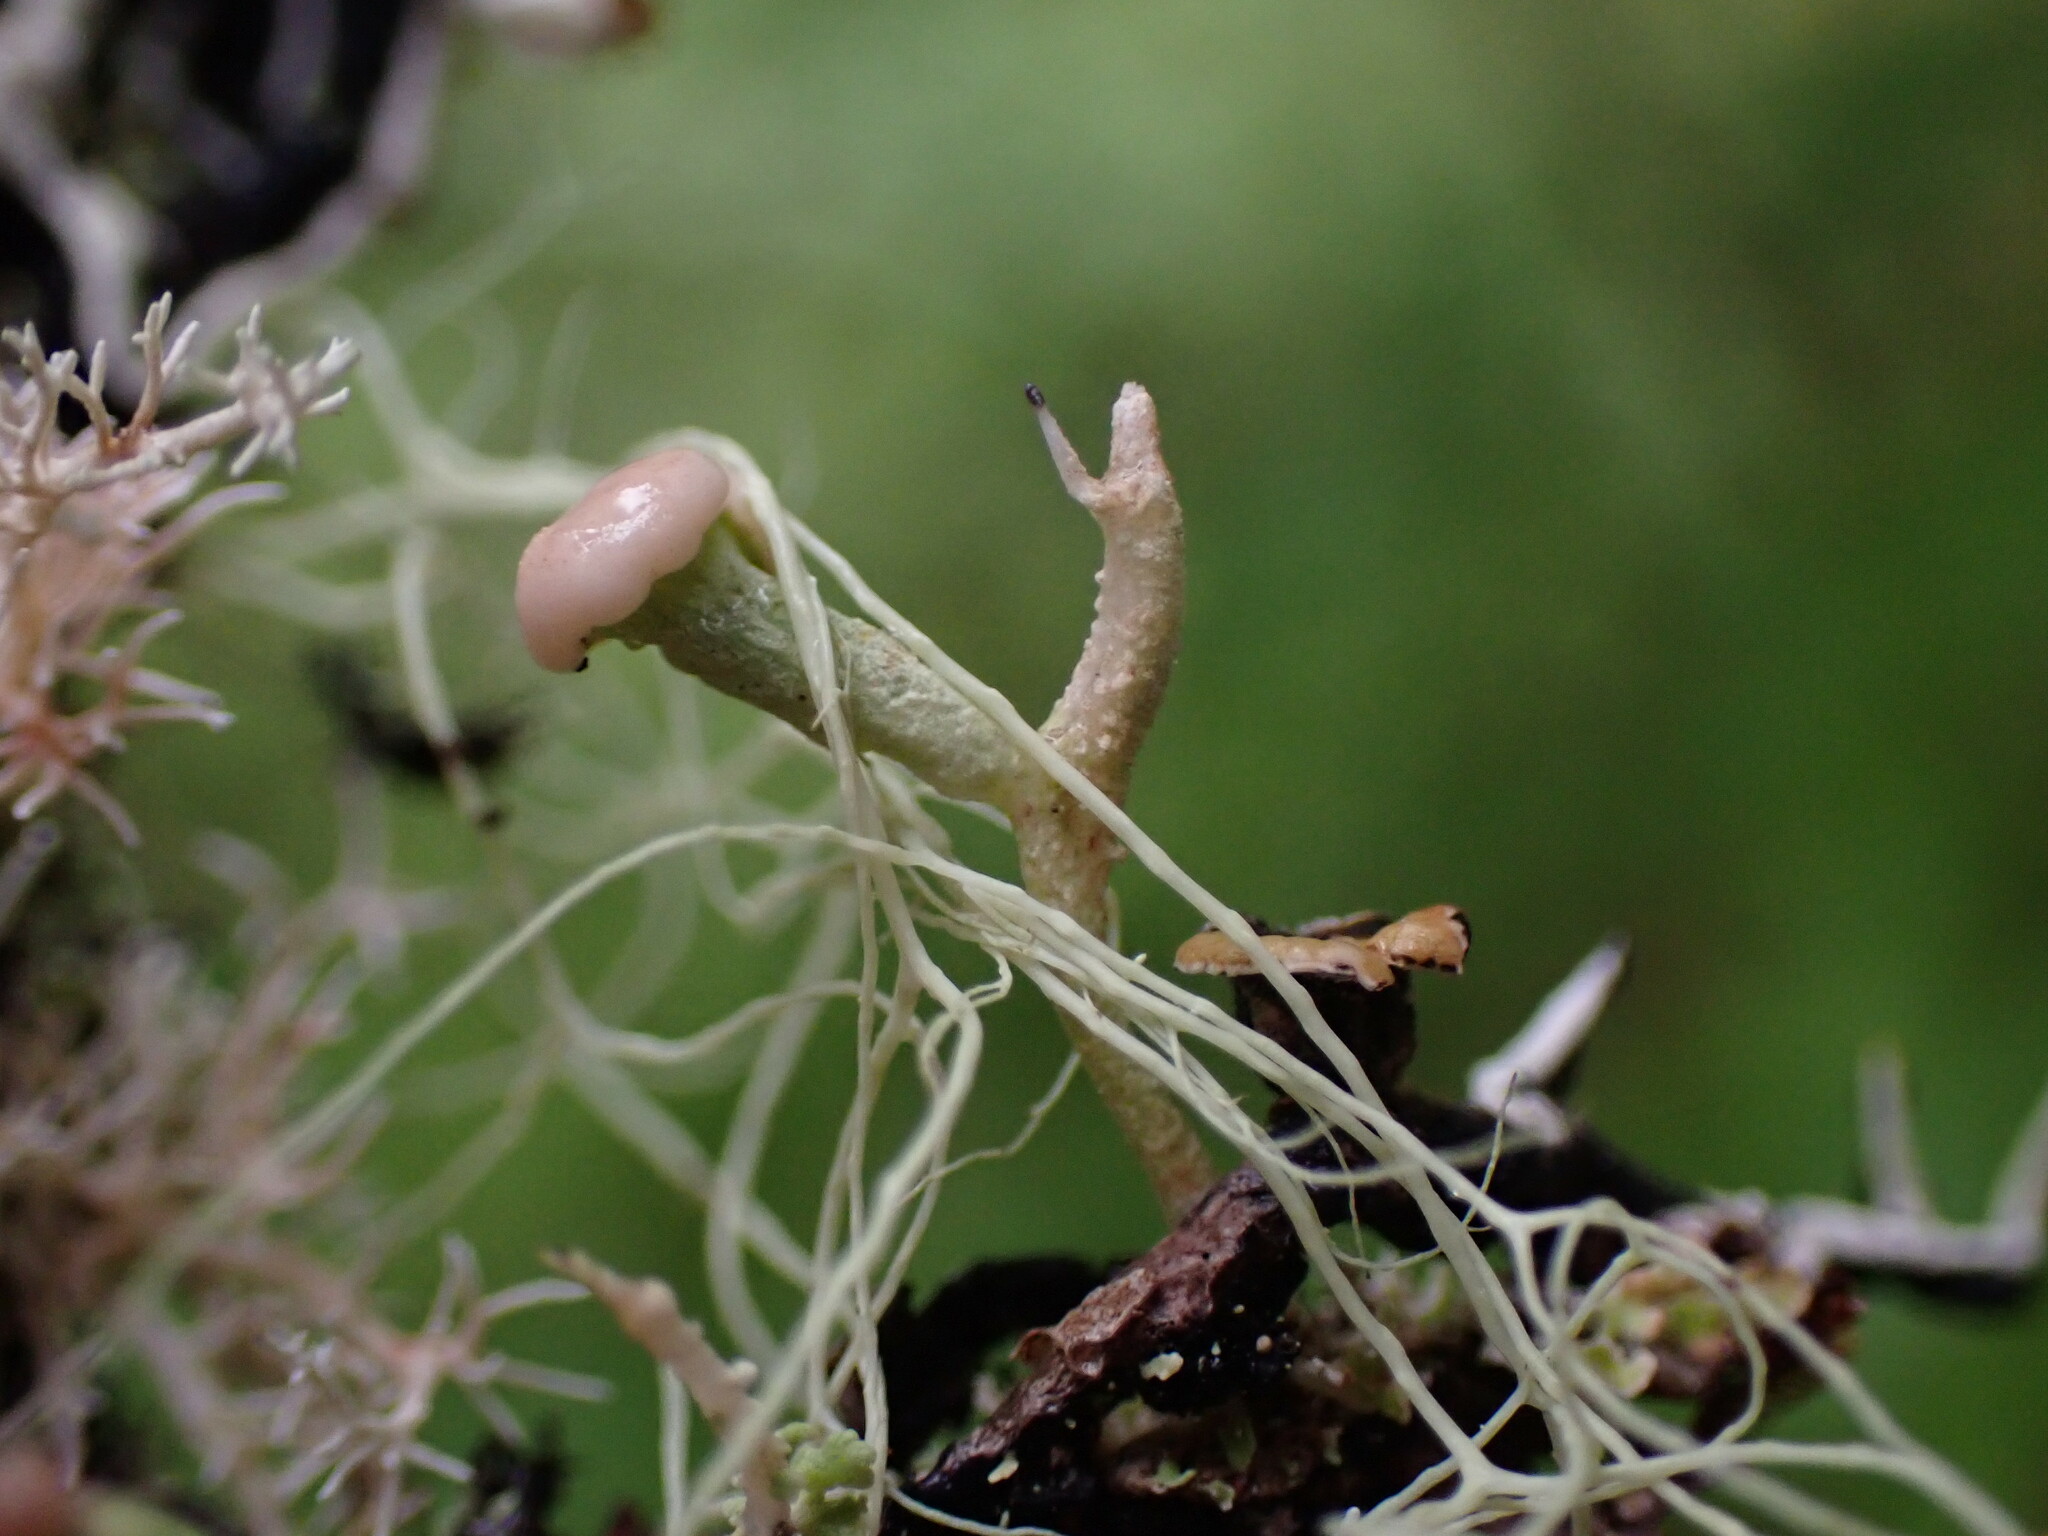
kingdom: Fungi
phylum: Ascomycota
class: Lecanoromycetes
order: Lecanorales
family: Cladoniaceae
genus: Cladonia
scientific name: Cladonia norvegica
